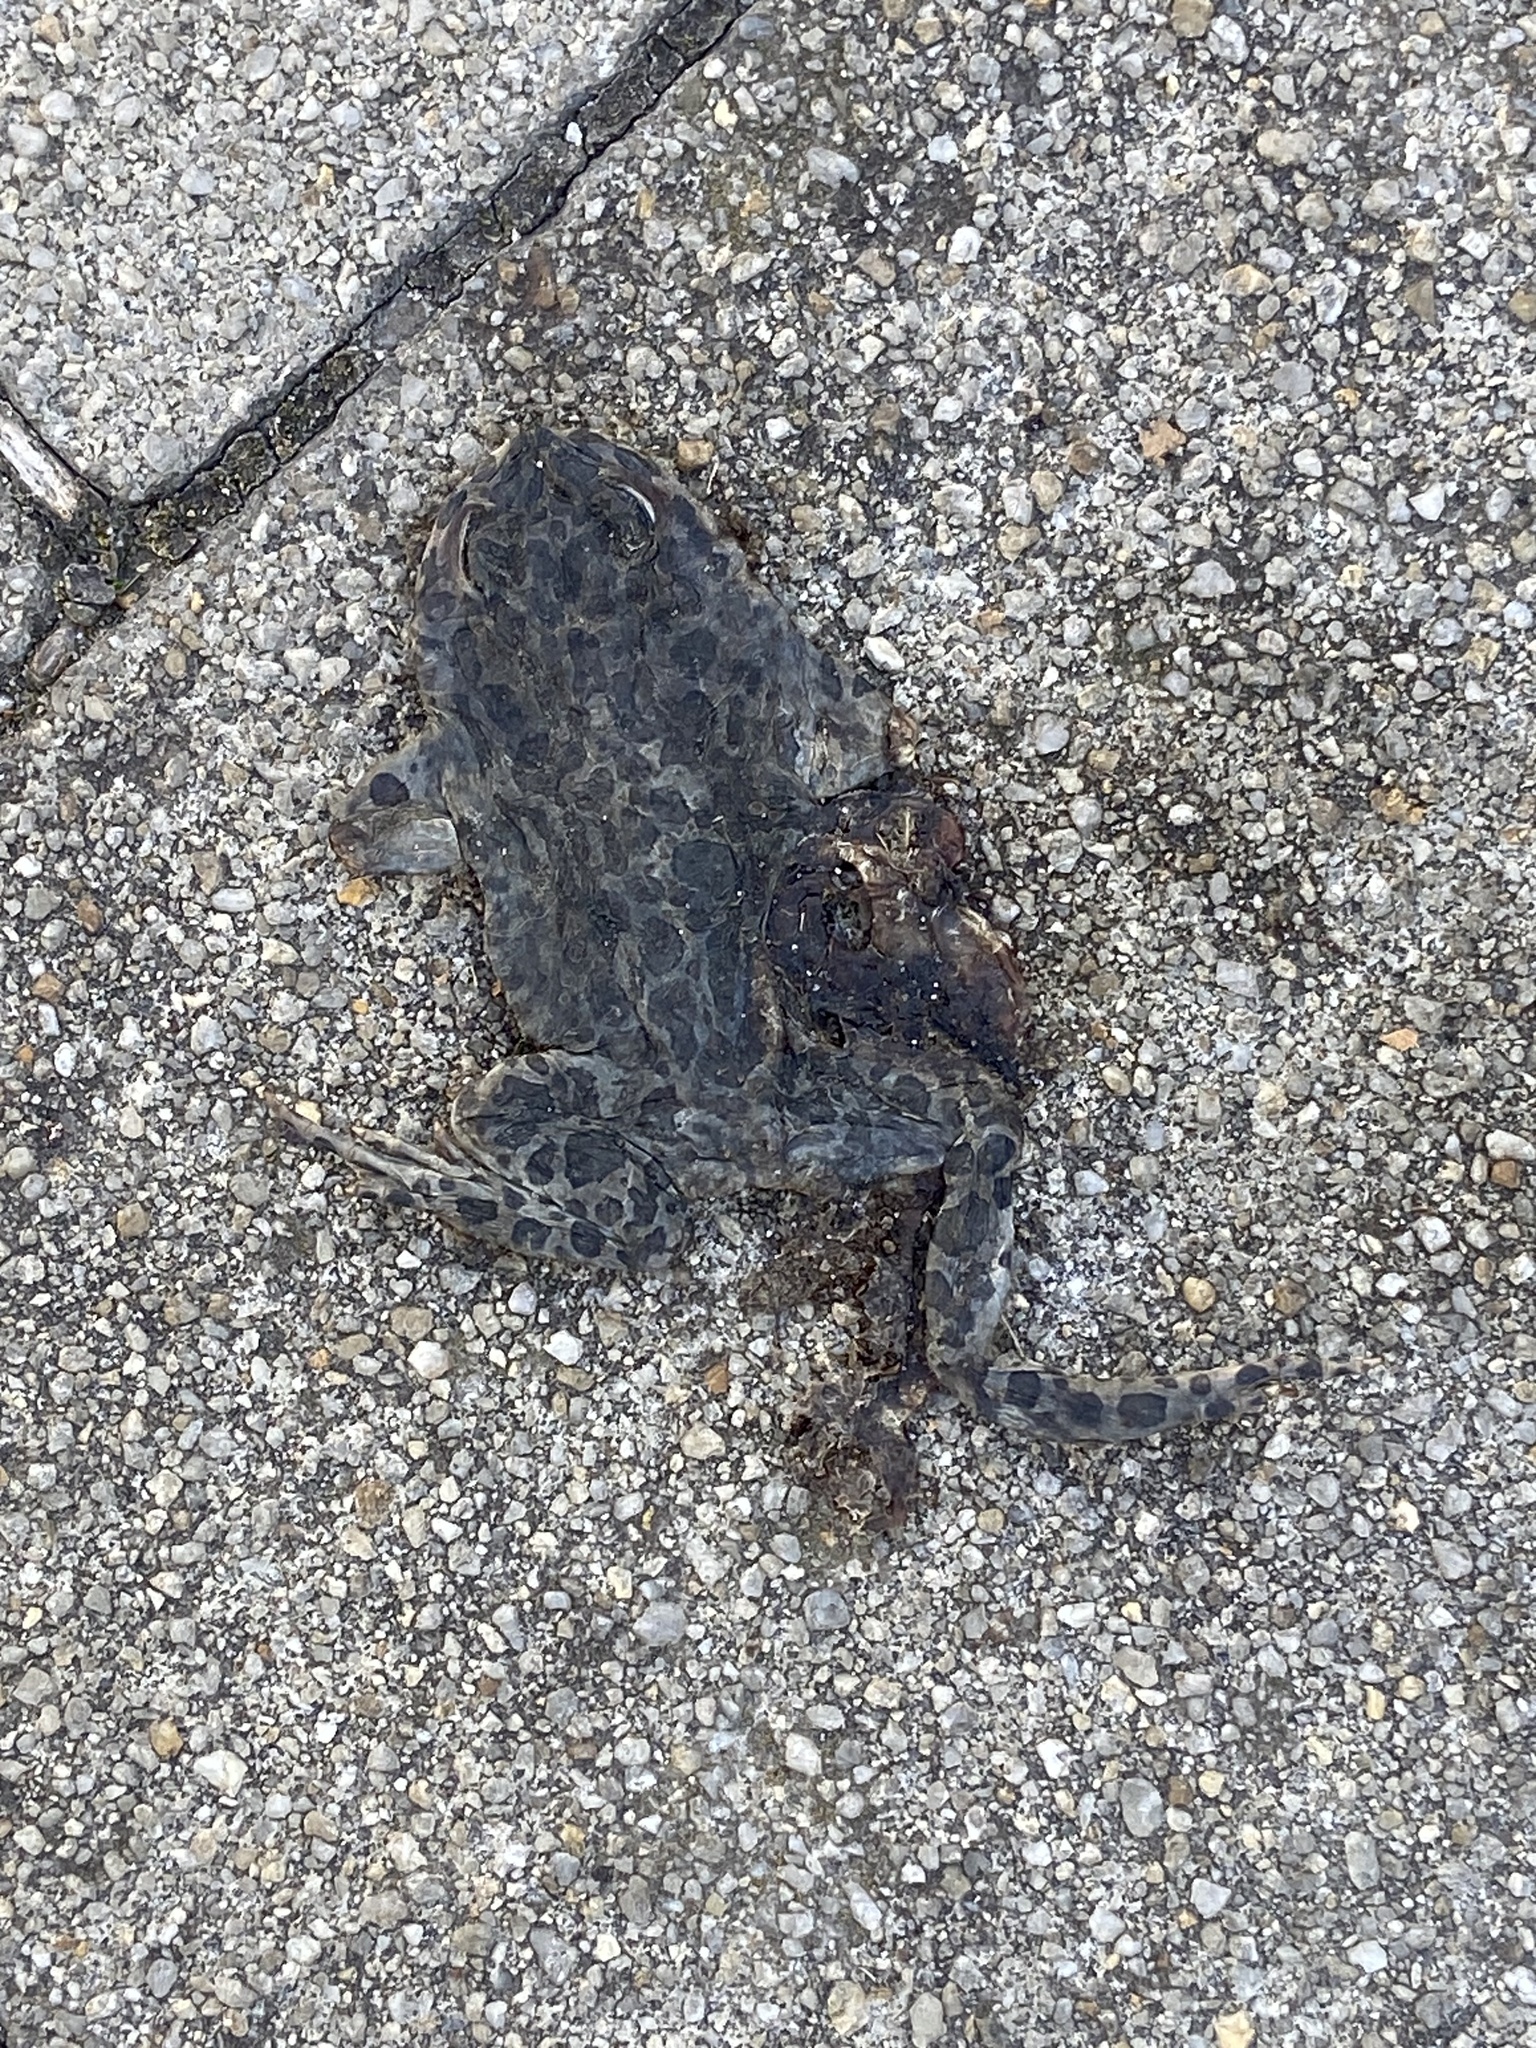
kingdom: Animalia
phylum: Chordata
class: Amphibia
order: Anura
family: Bufonidae
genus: Bufotes
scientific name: Bufotes viridis
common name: European green toad
